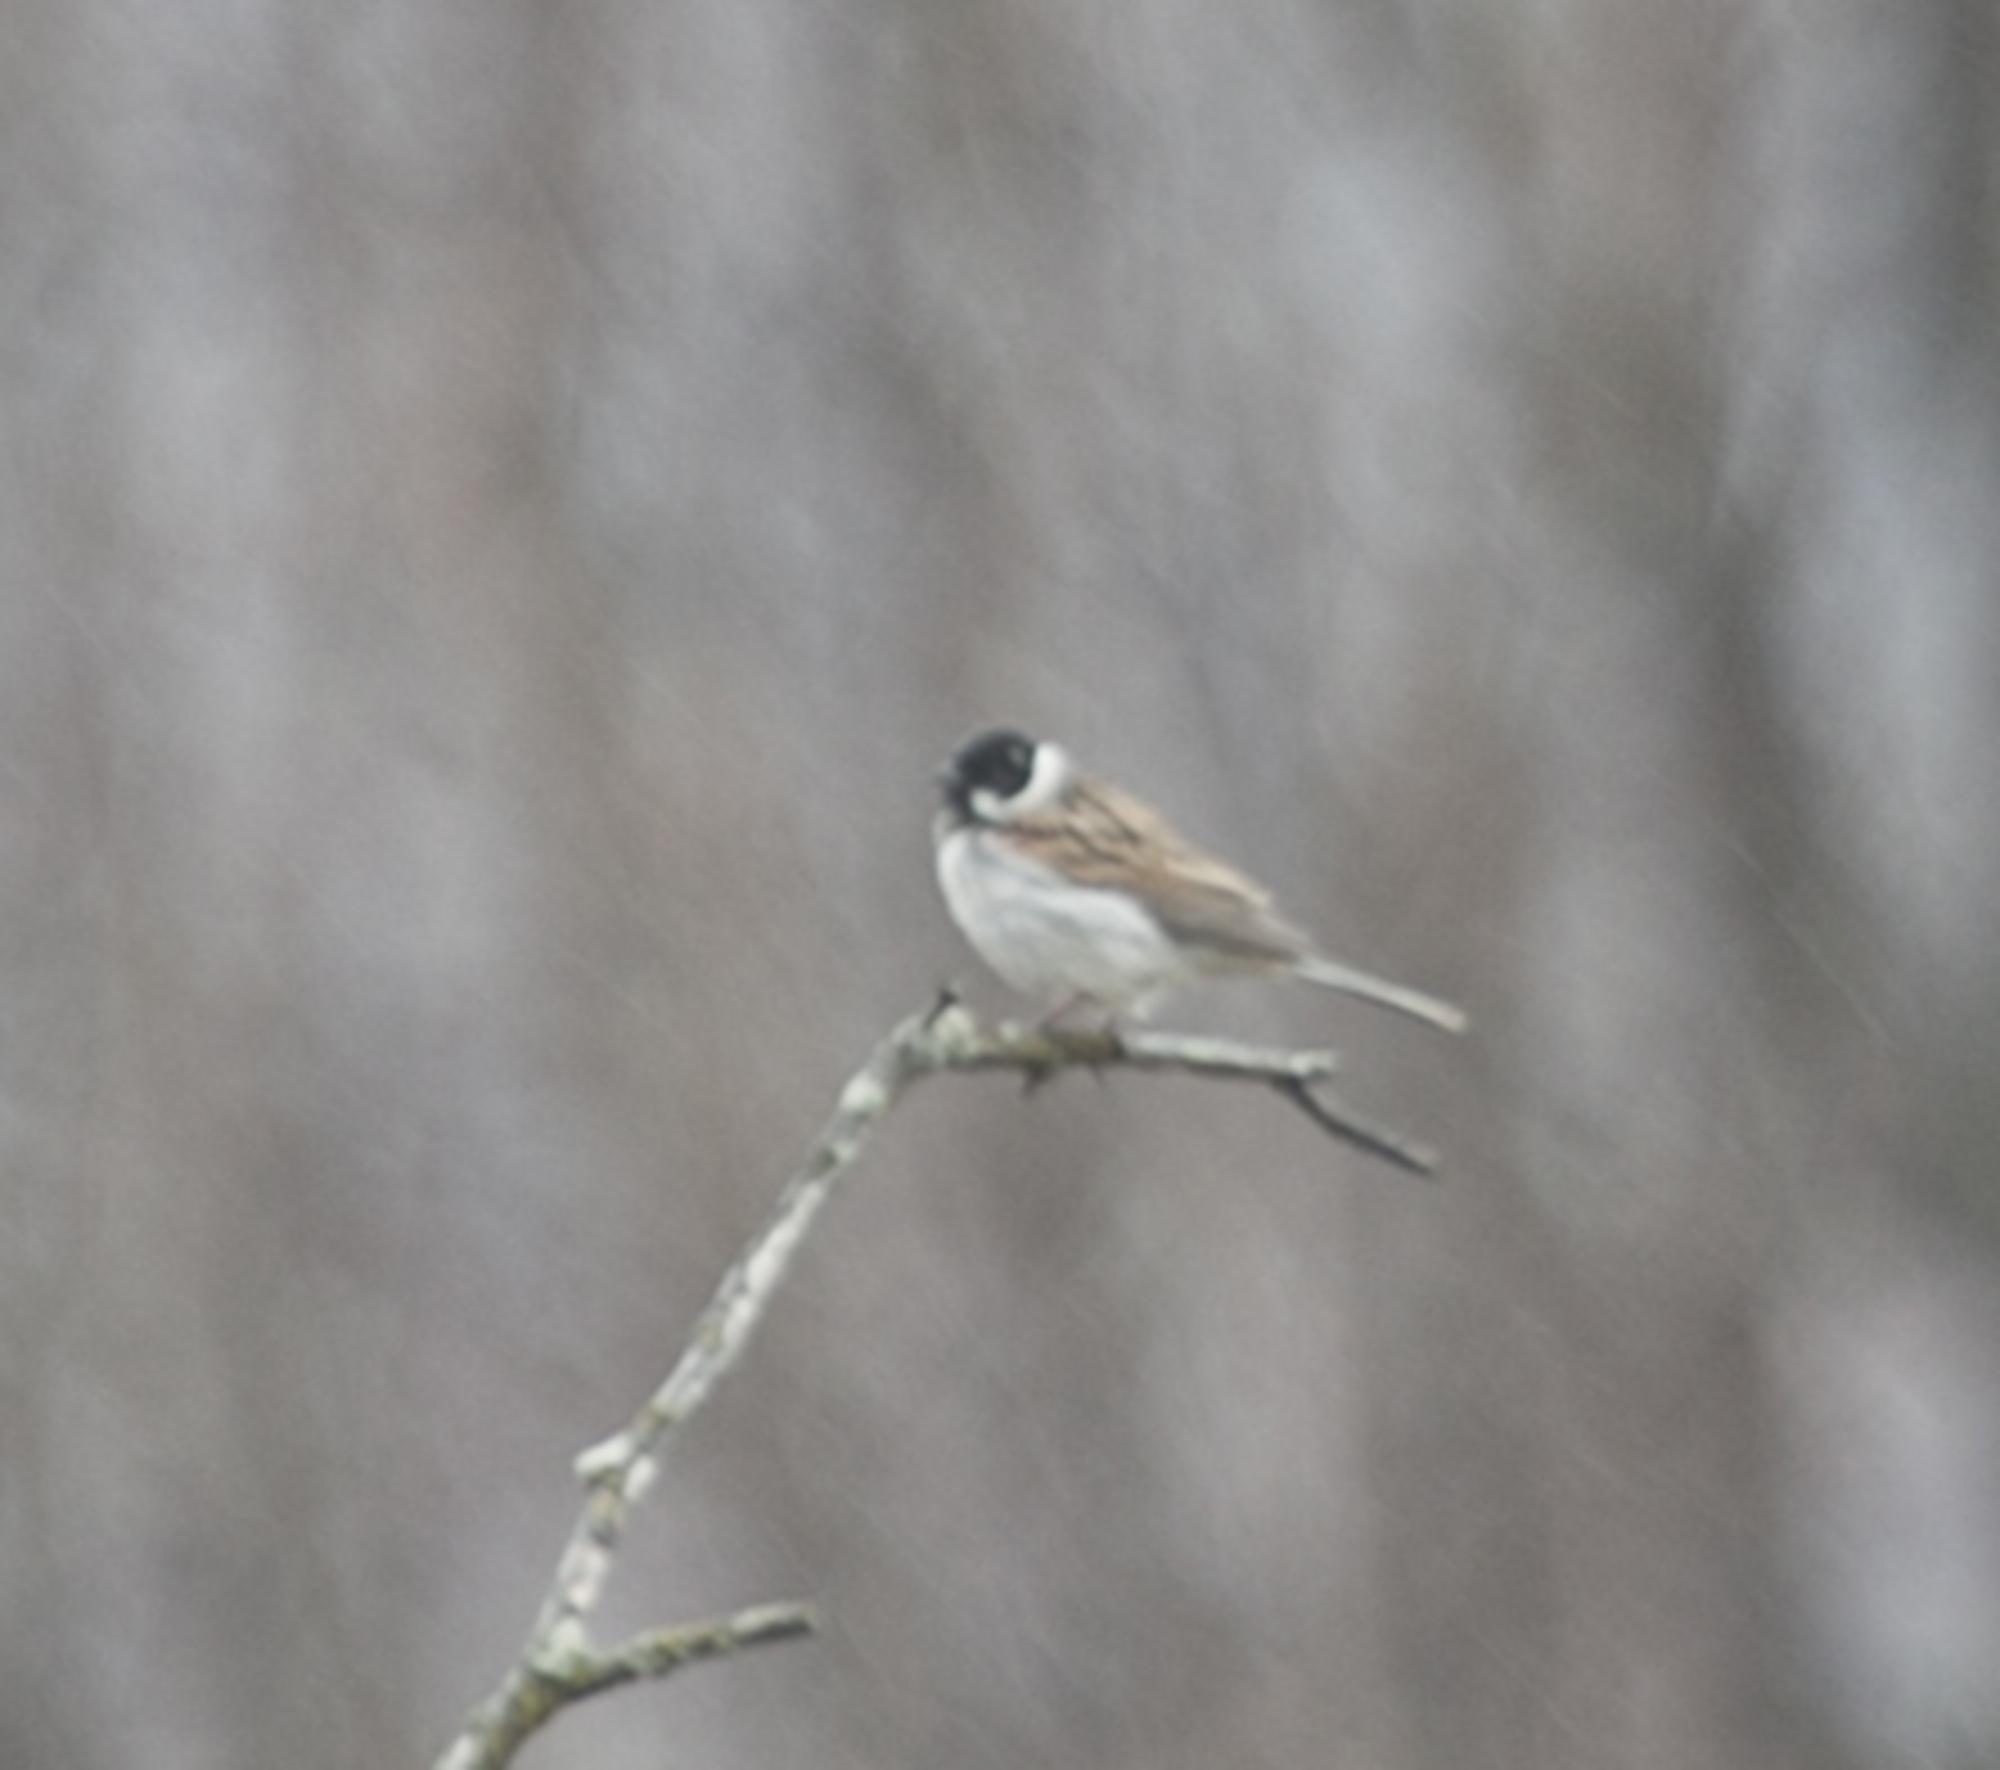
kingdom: Animalia
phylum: Chordata
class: Aves
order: Passeriformes
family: Emberizidae
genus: Emberiza
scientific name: Emberiza schoeniclus
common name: Reed bunting
